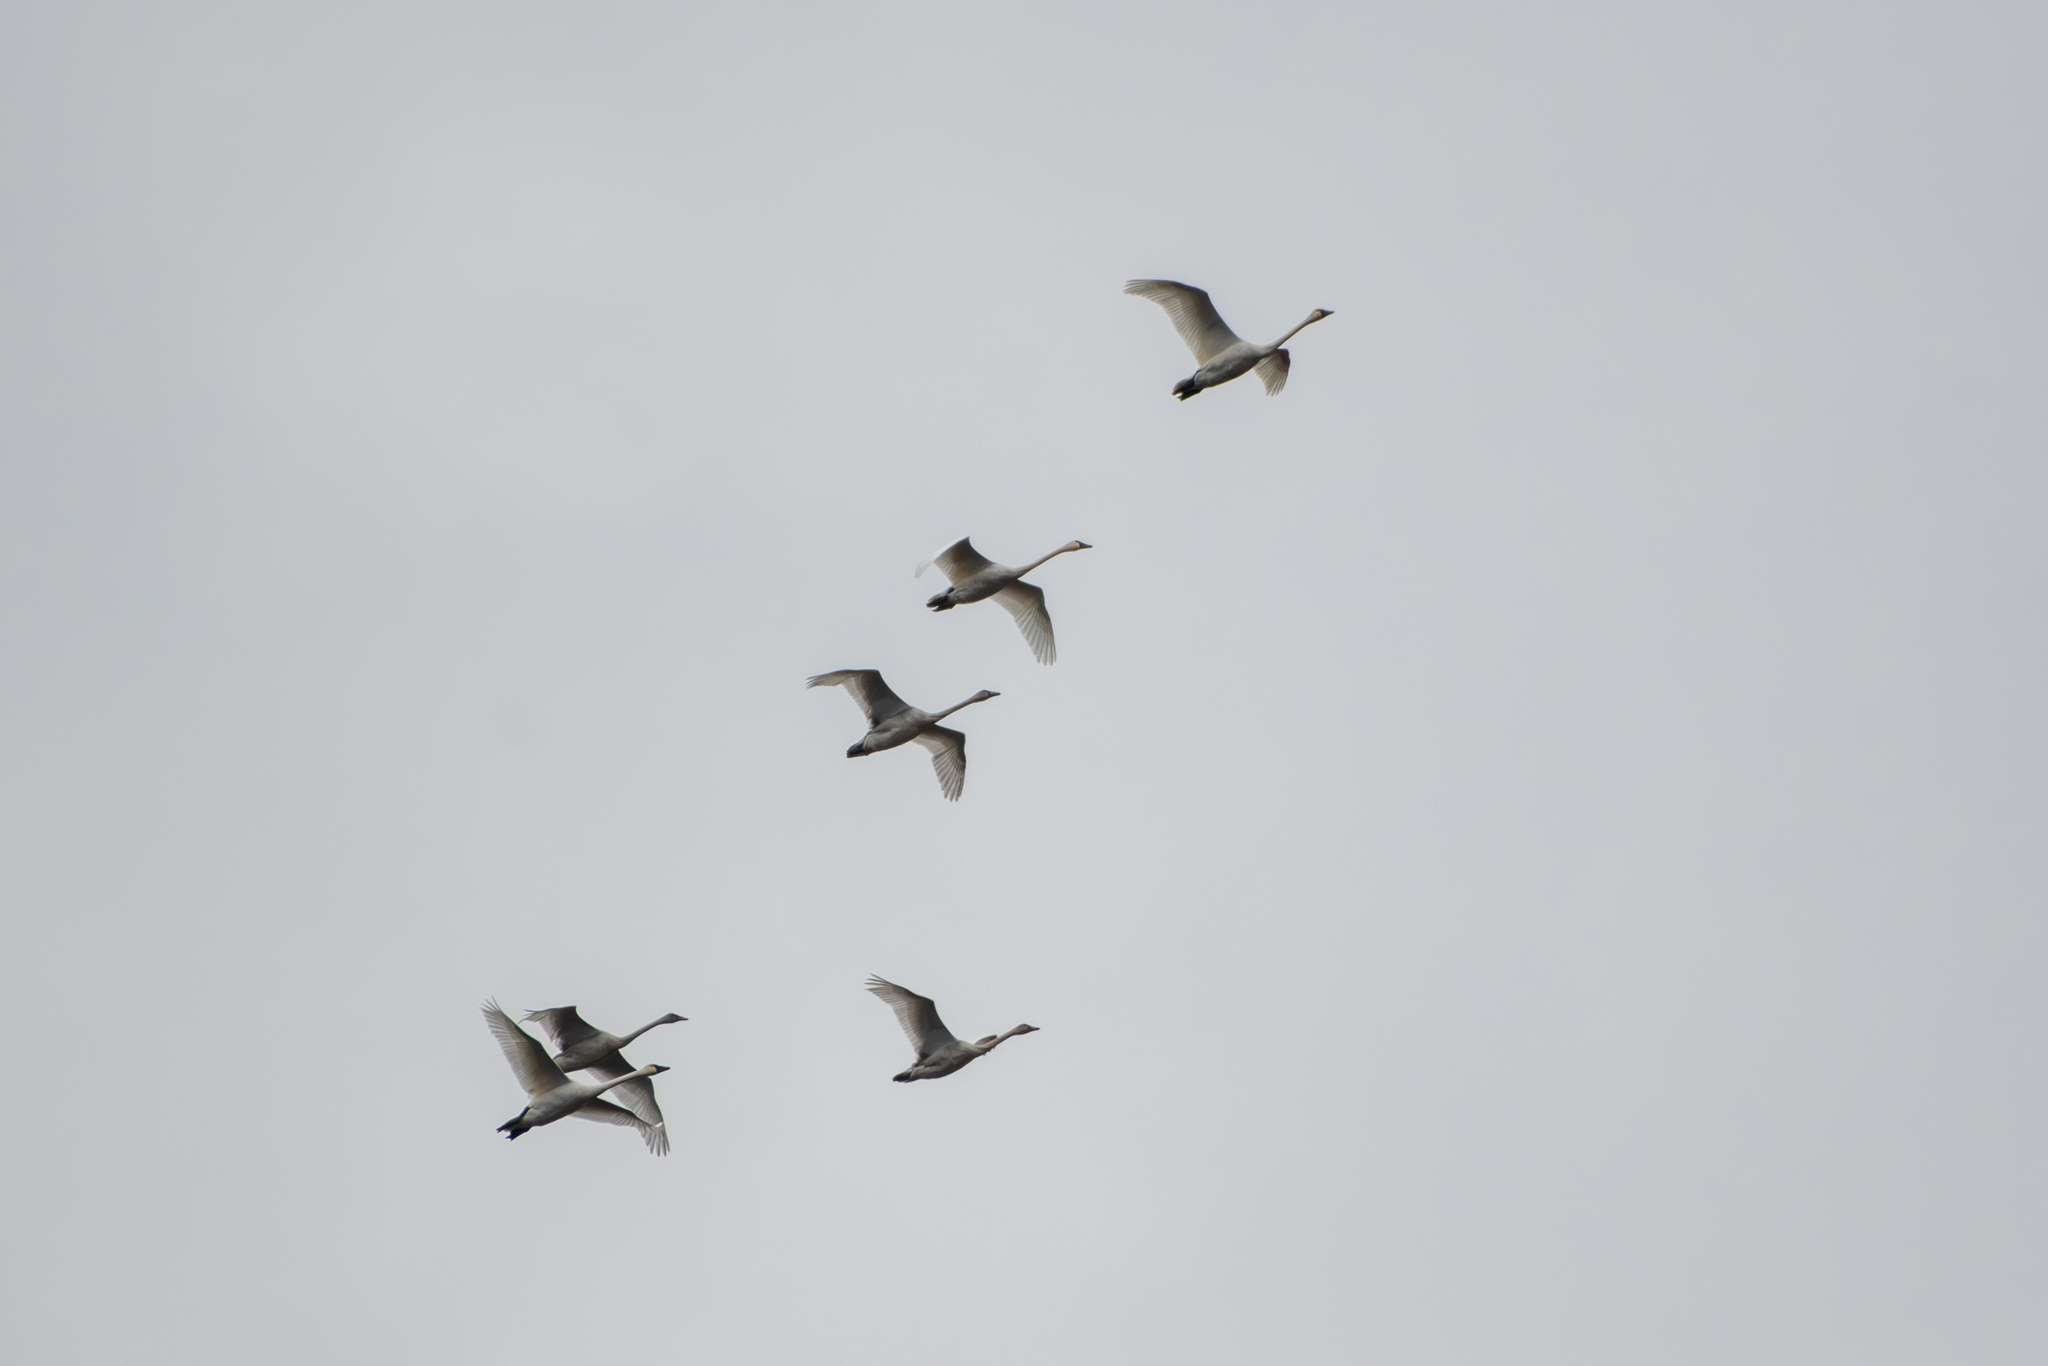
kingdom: Animalia
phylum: Chordata
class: Aves
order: Anseriformes
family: Anatidae
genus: Cygnus
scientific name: Cygnus columbianus
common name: Tundra swan
